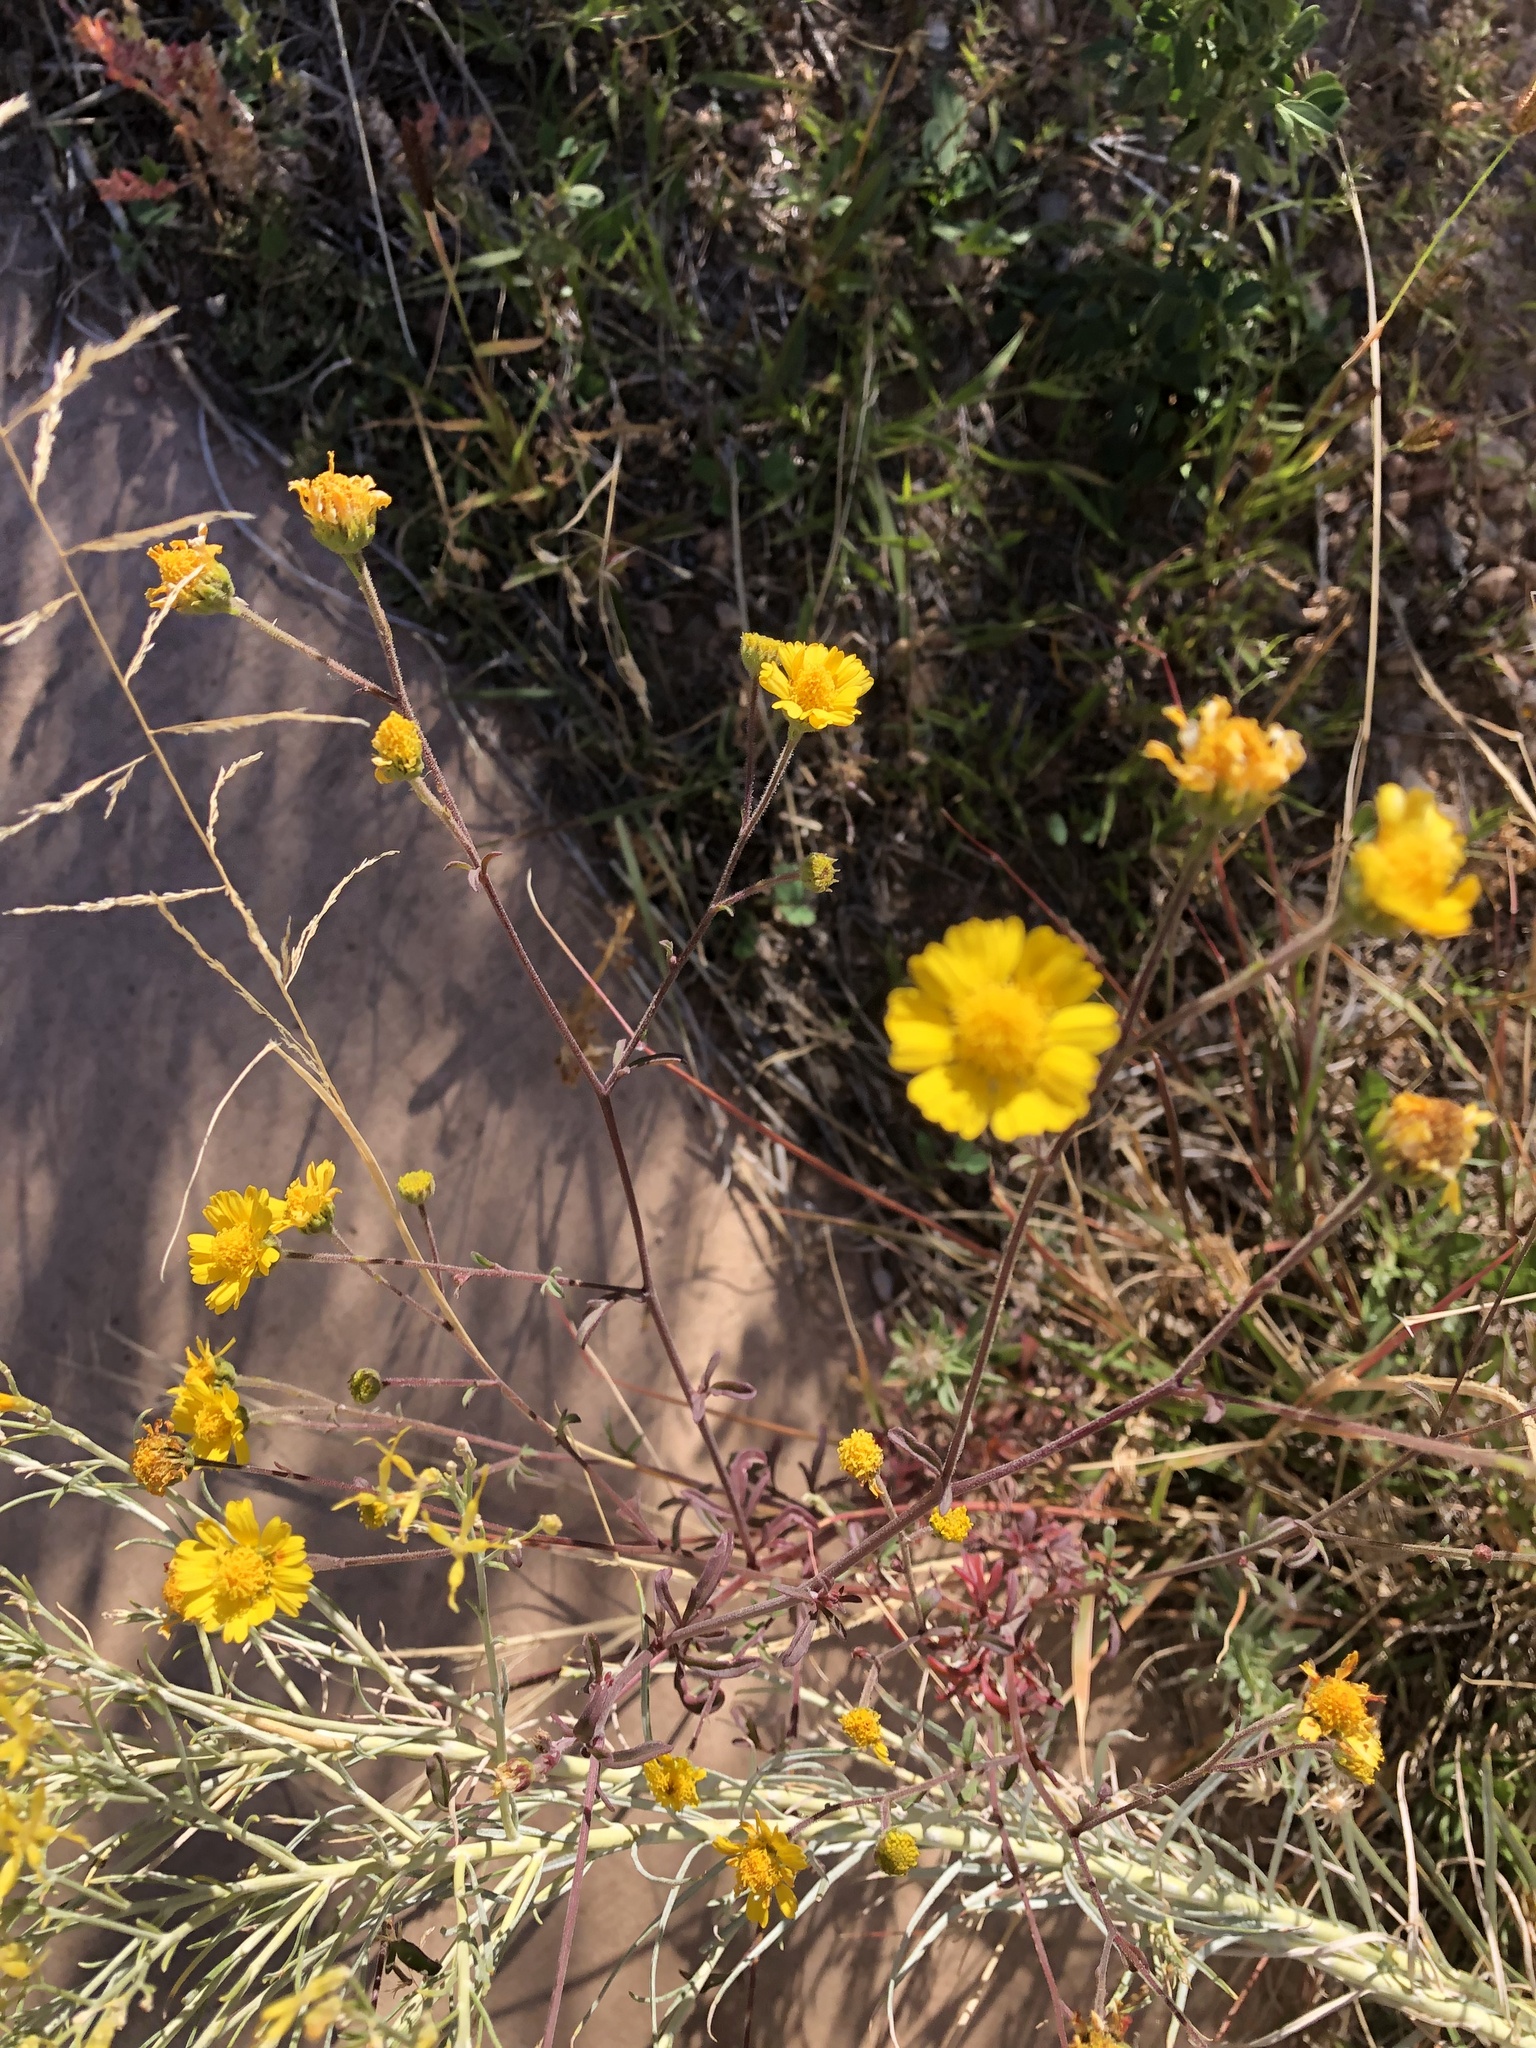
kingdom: Plantae
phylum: Tracheophyta
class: Magnoliopsida
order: Asterales
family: Asteraceae
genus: Hymenothrix
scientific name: Hymenothrix dissecta
